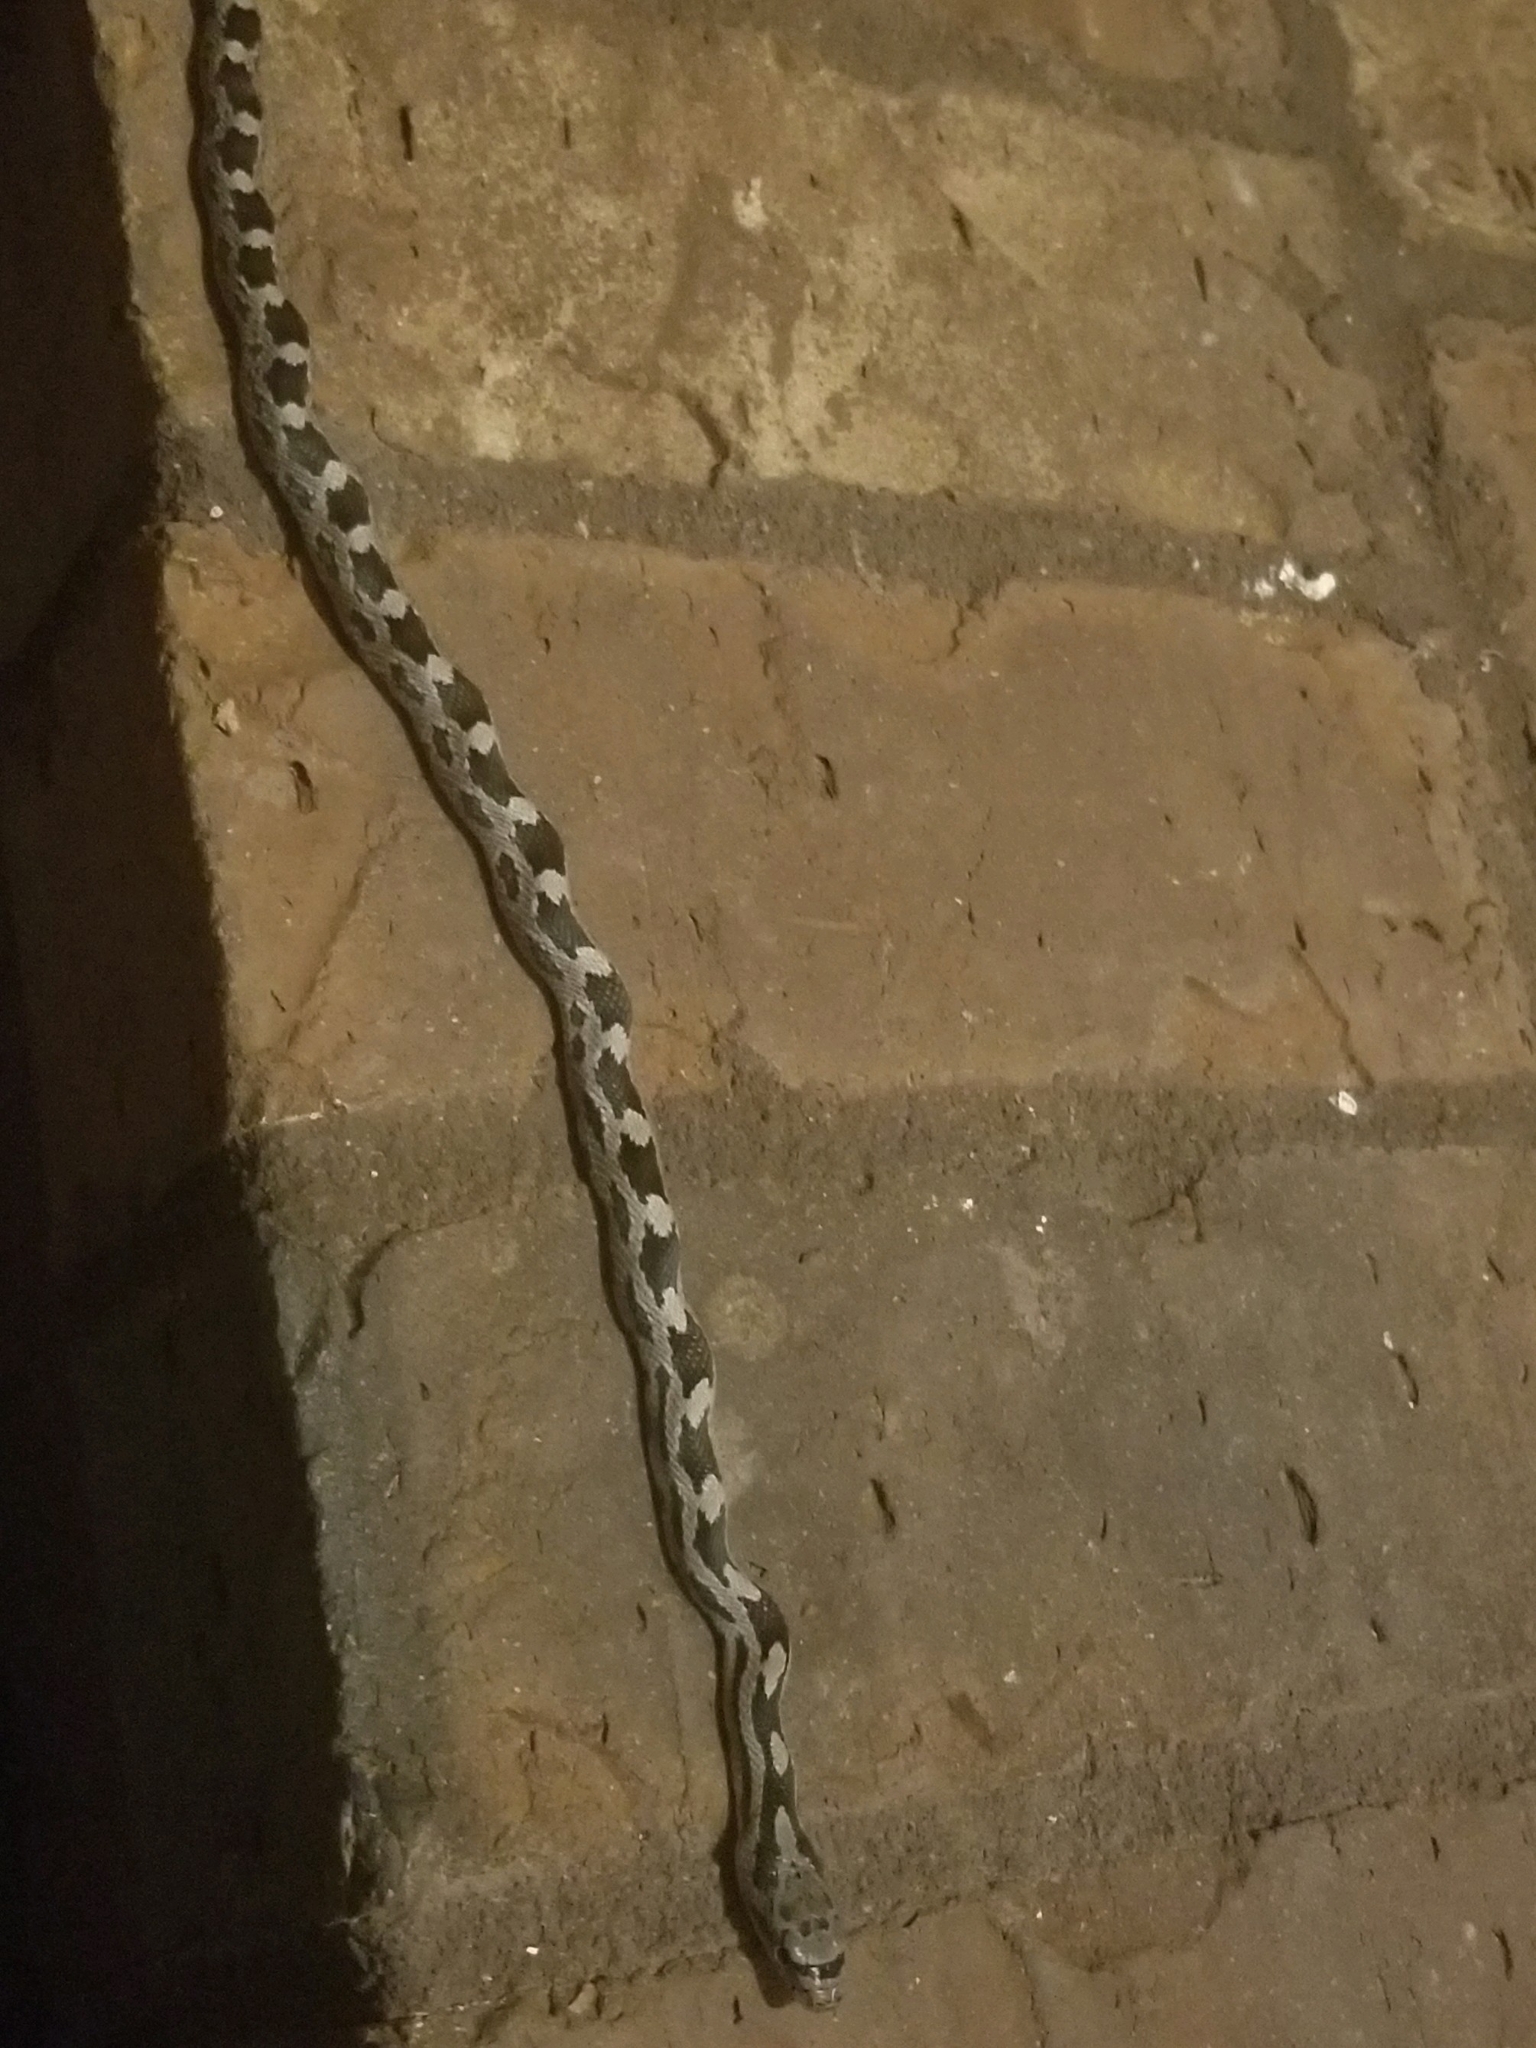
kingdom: Animalia
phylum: Chordata
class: Squamata
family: Colubridae
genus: Pantherophis
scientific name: Pantherophis alleghaniensis
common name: Eastern rat snake
